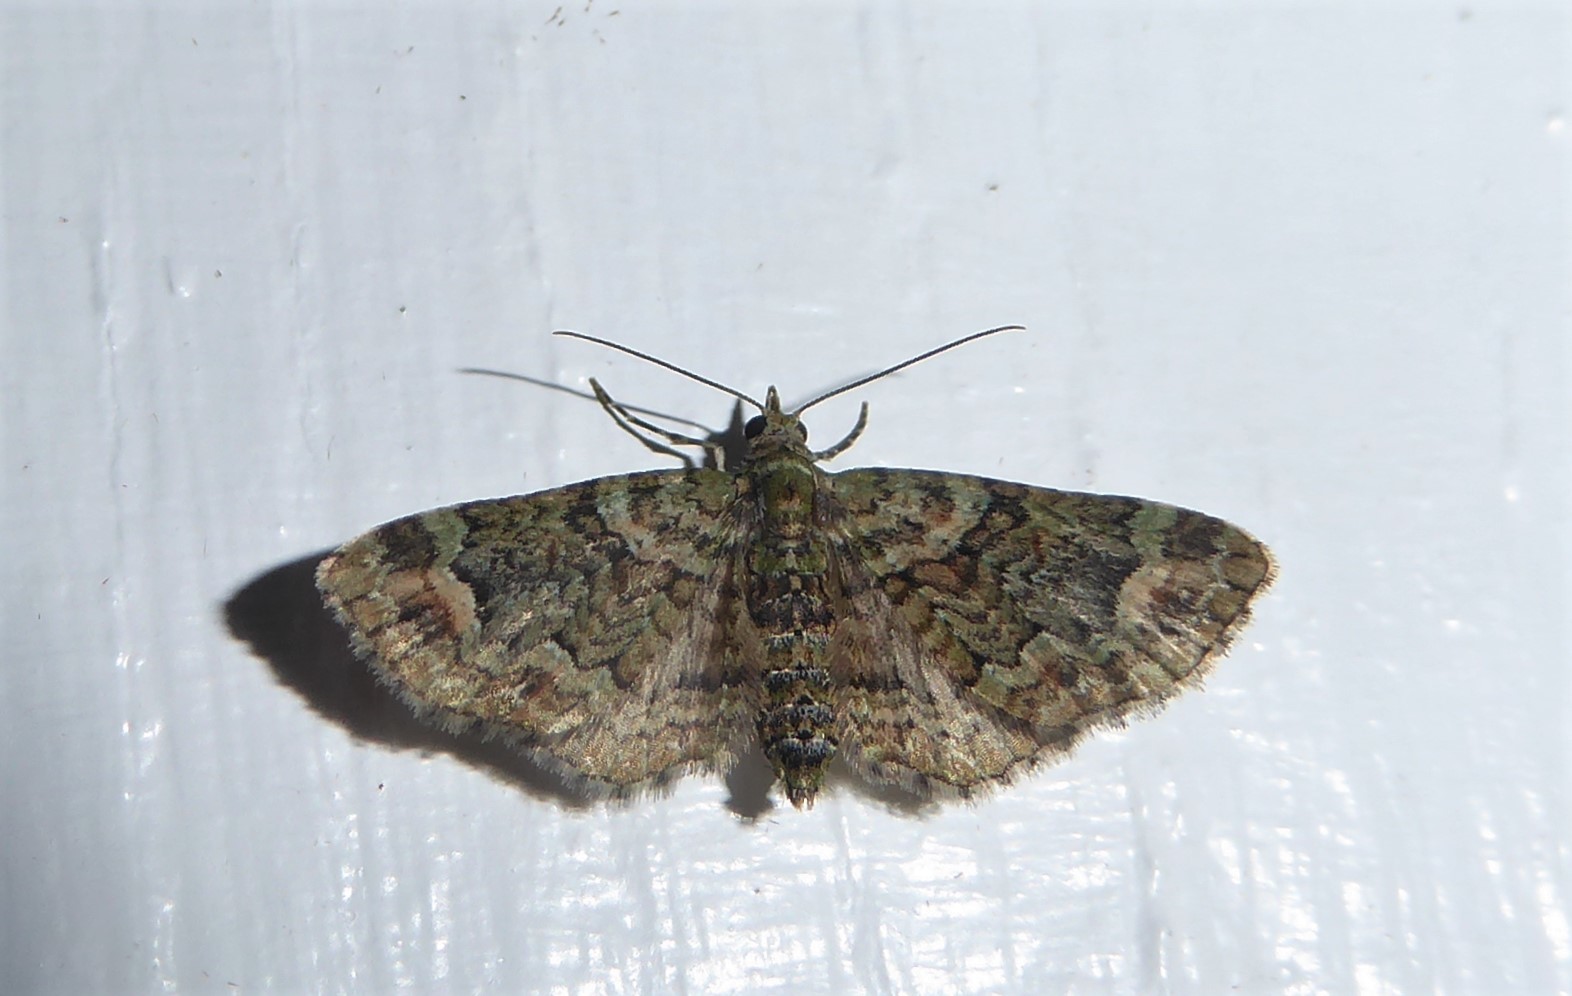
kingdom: Animalia
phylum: Arthropoda
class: Insecta
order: Lepidoptera
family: Geometridae
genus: Idaea
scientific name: Idaea mutanda
